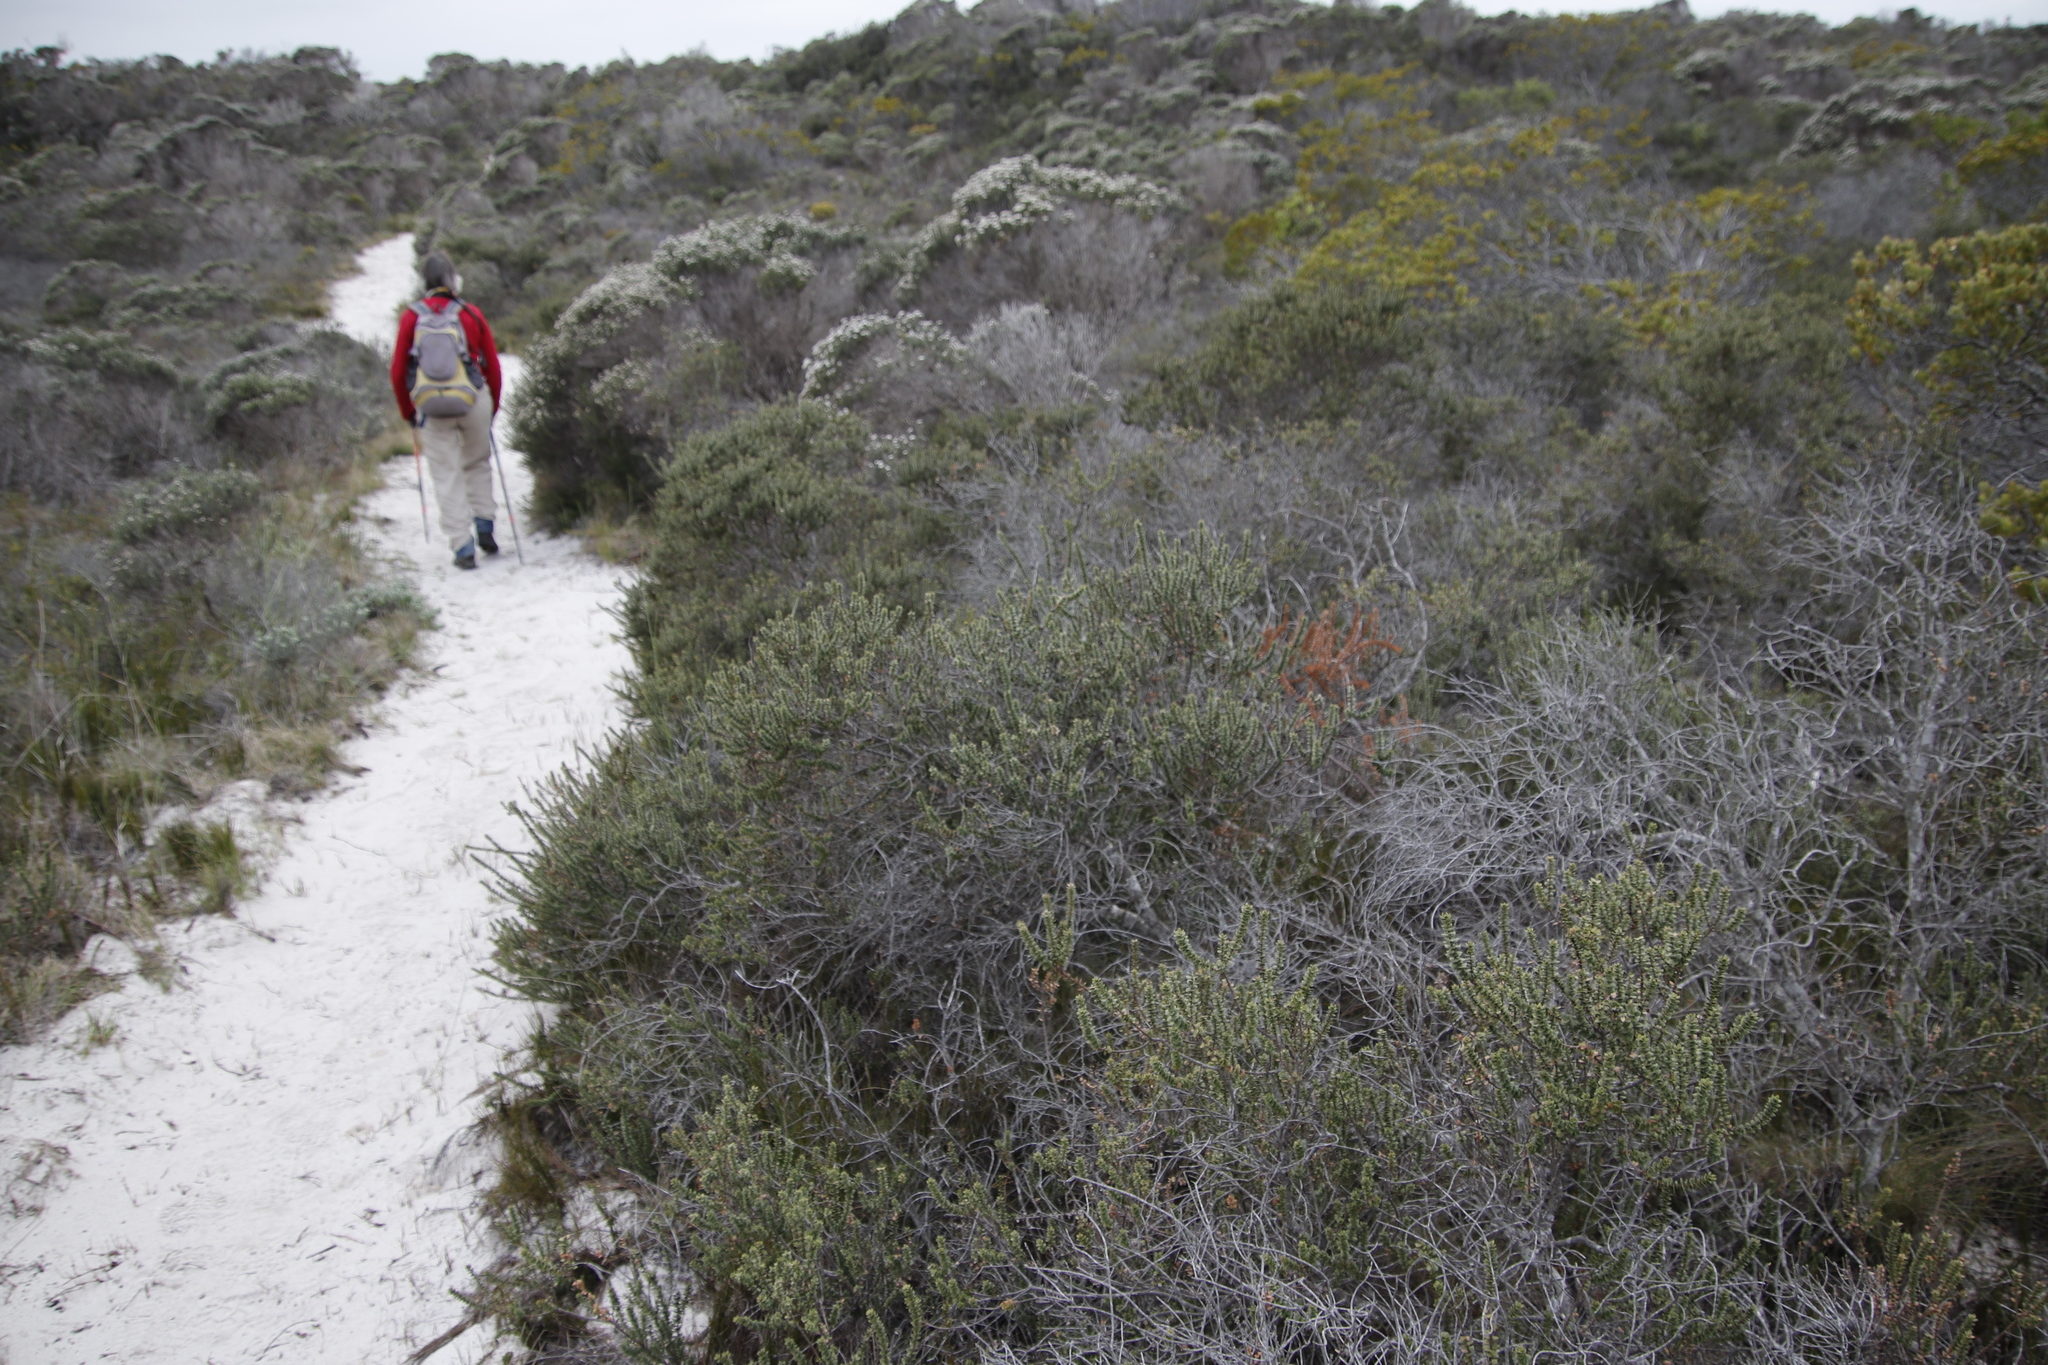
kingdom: Plantae
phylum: Tracheophyta
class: Magnoliopsida
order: Fagales
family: Myricaceae
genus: Morella
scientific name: Morella cordifolia
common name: Waxberry
